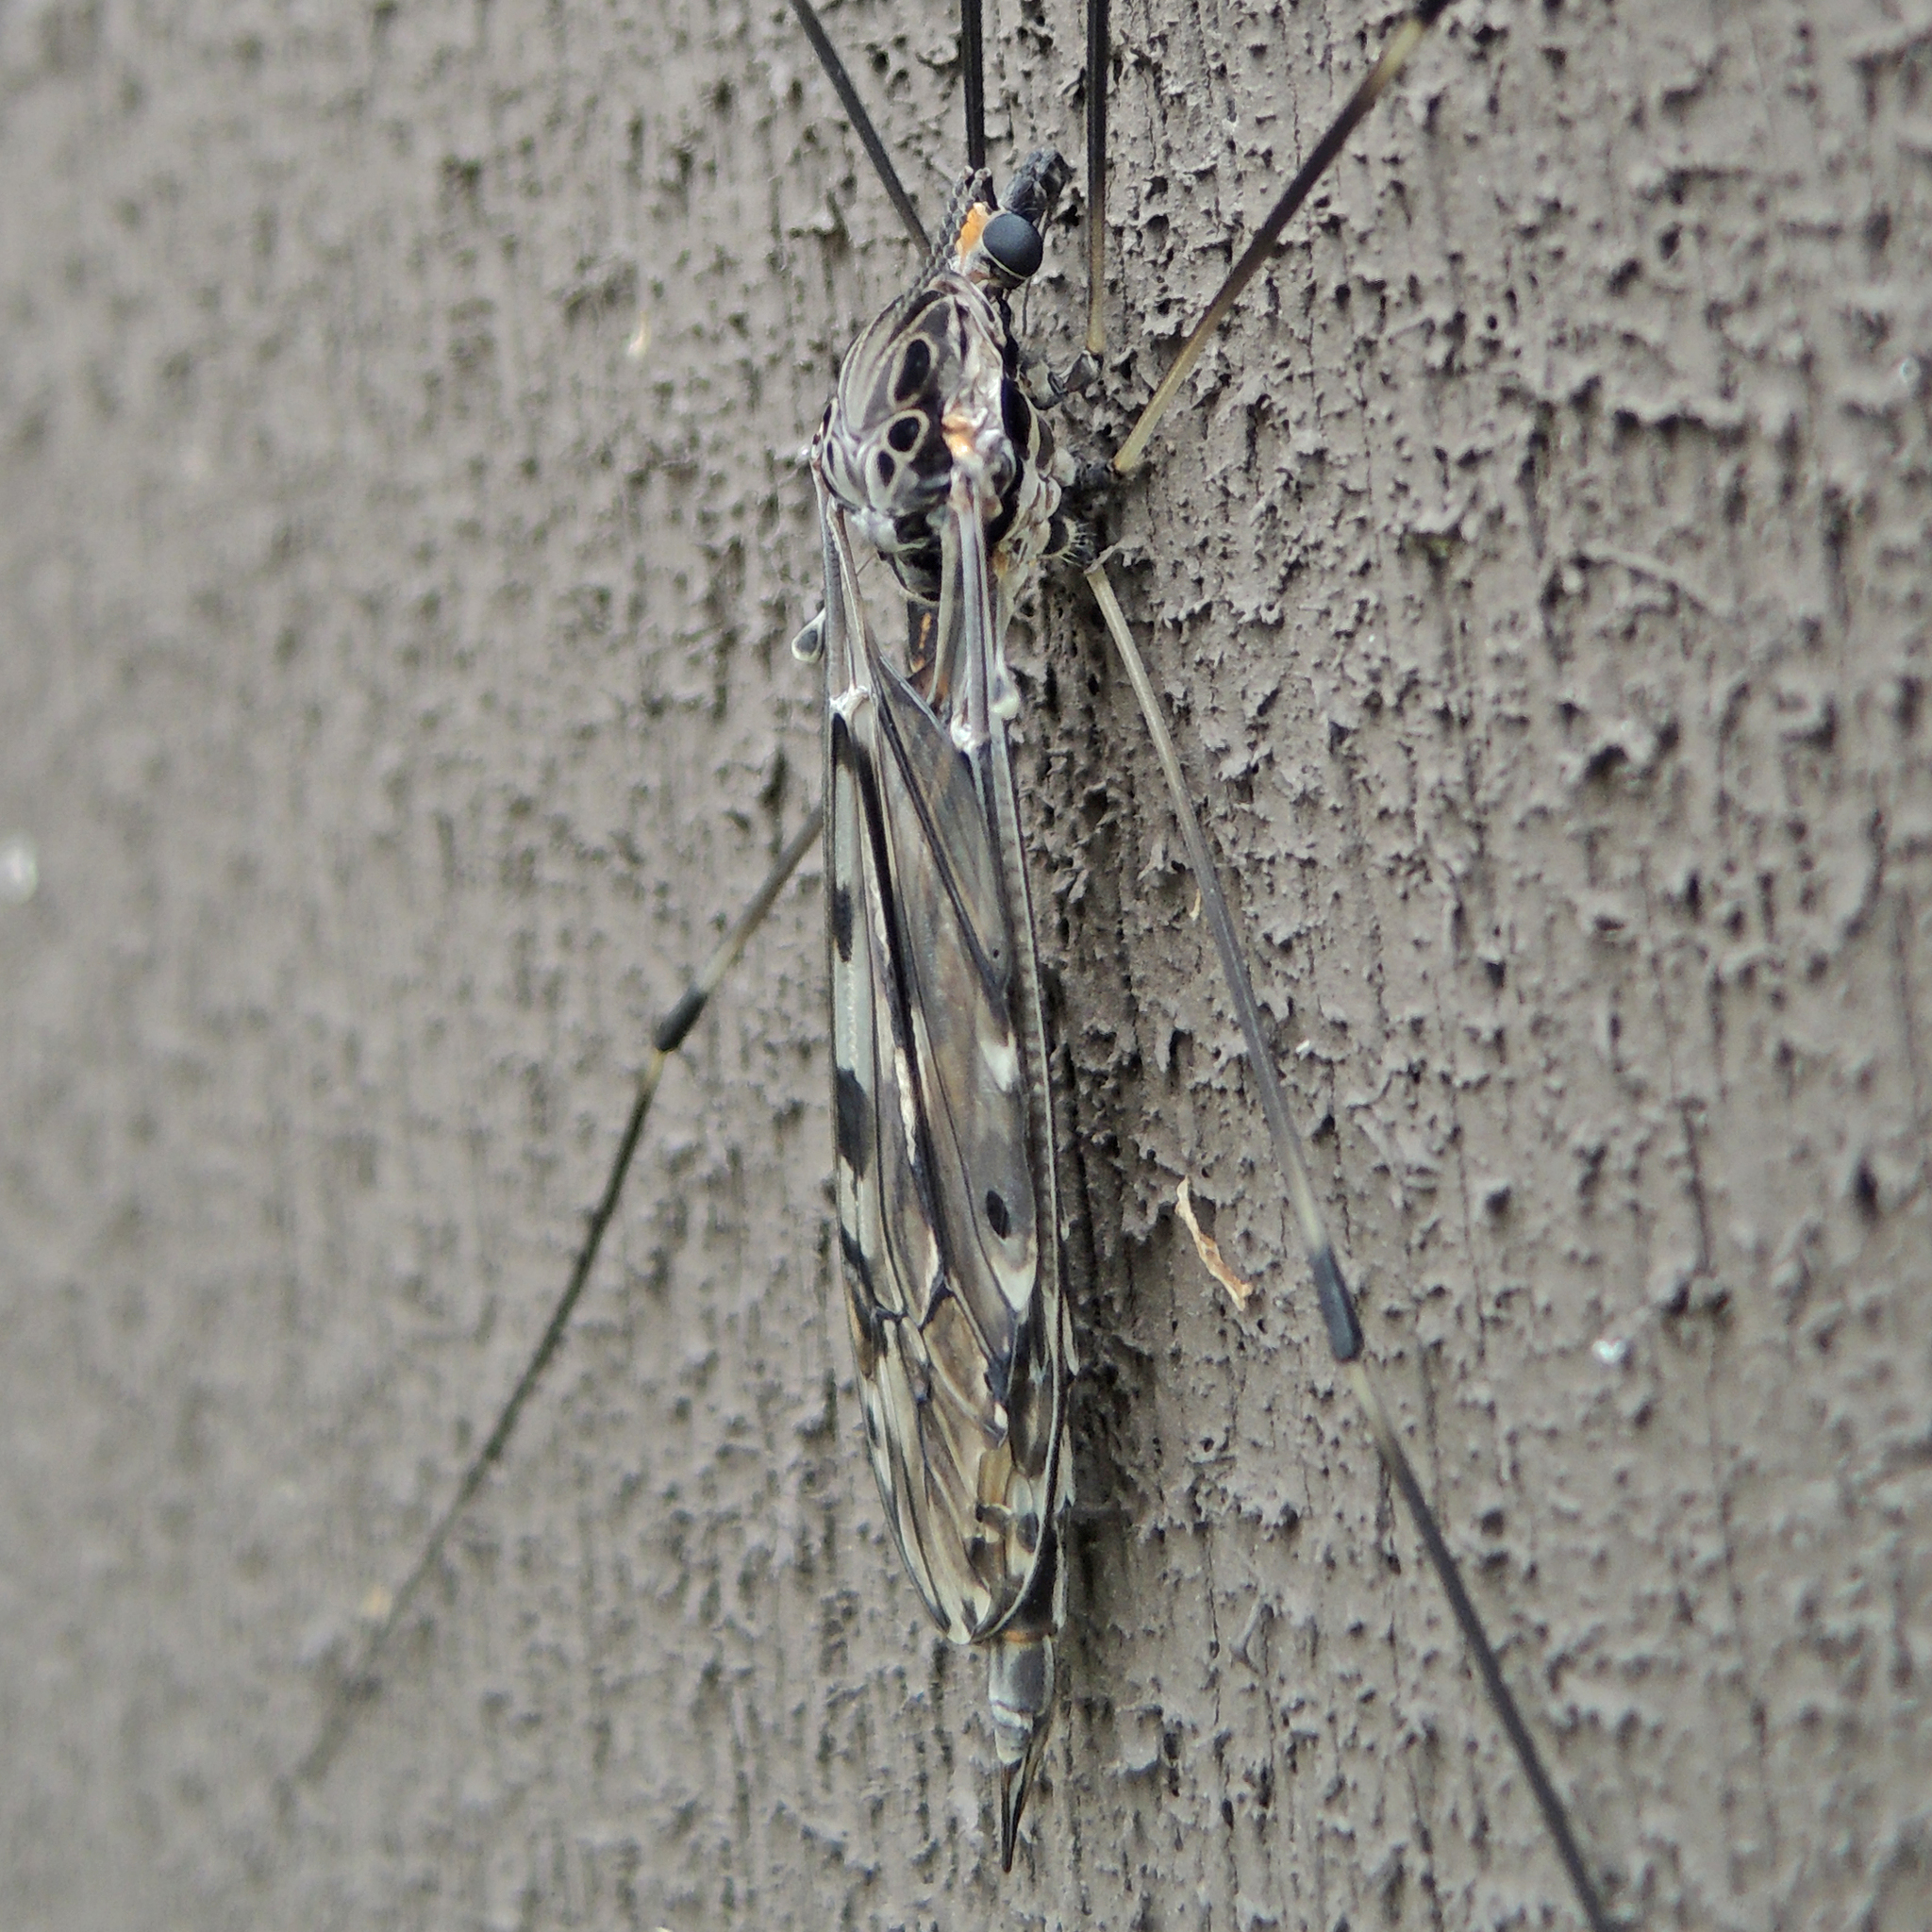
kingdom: Animalia
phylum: Arthropoda
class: Insecta
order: Diptera
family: Tipulidae
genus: Tipula
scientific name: Tipula abdominalis
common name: Giant crane fly
